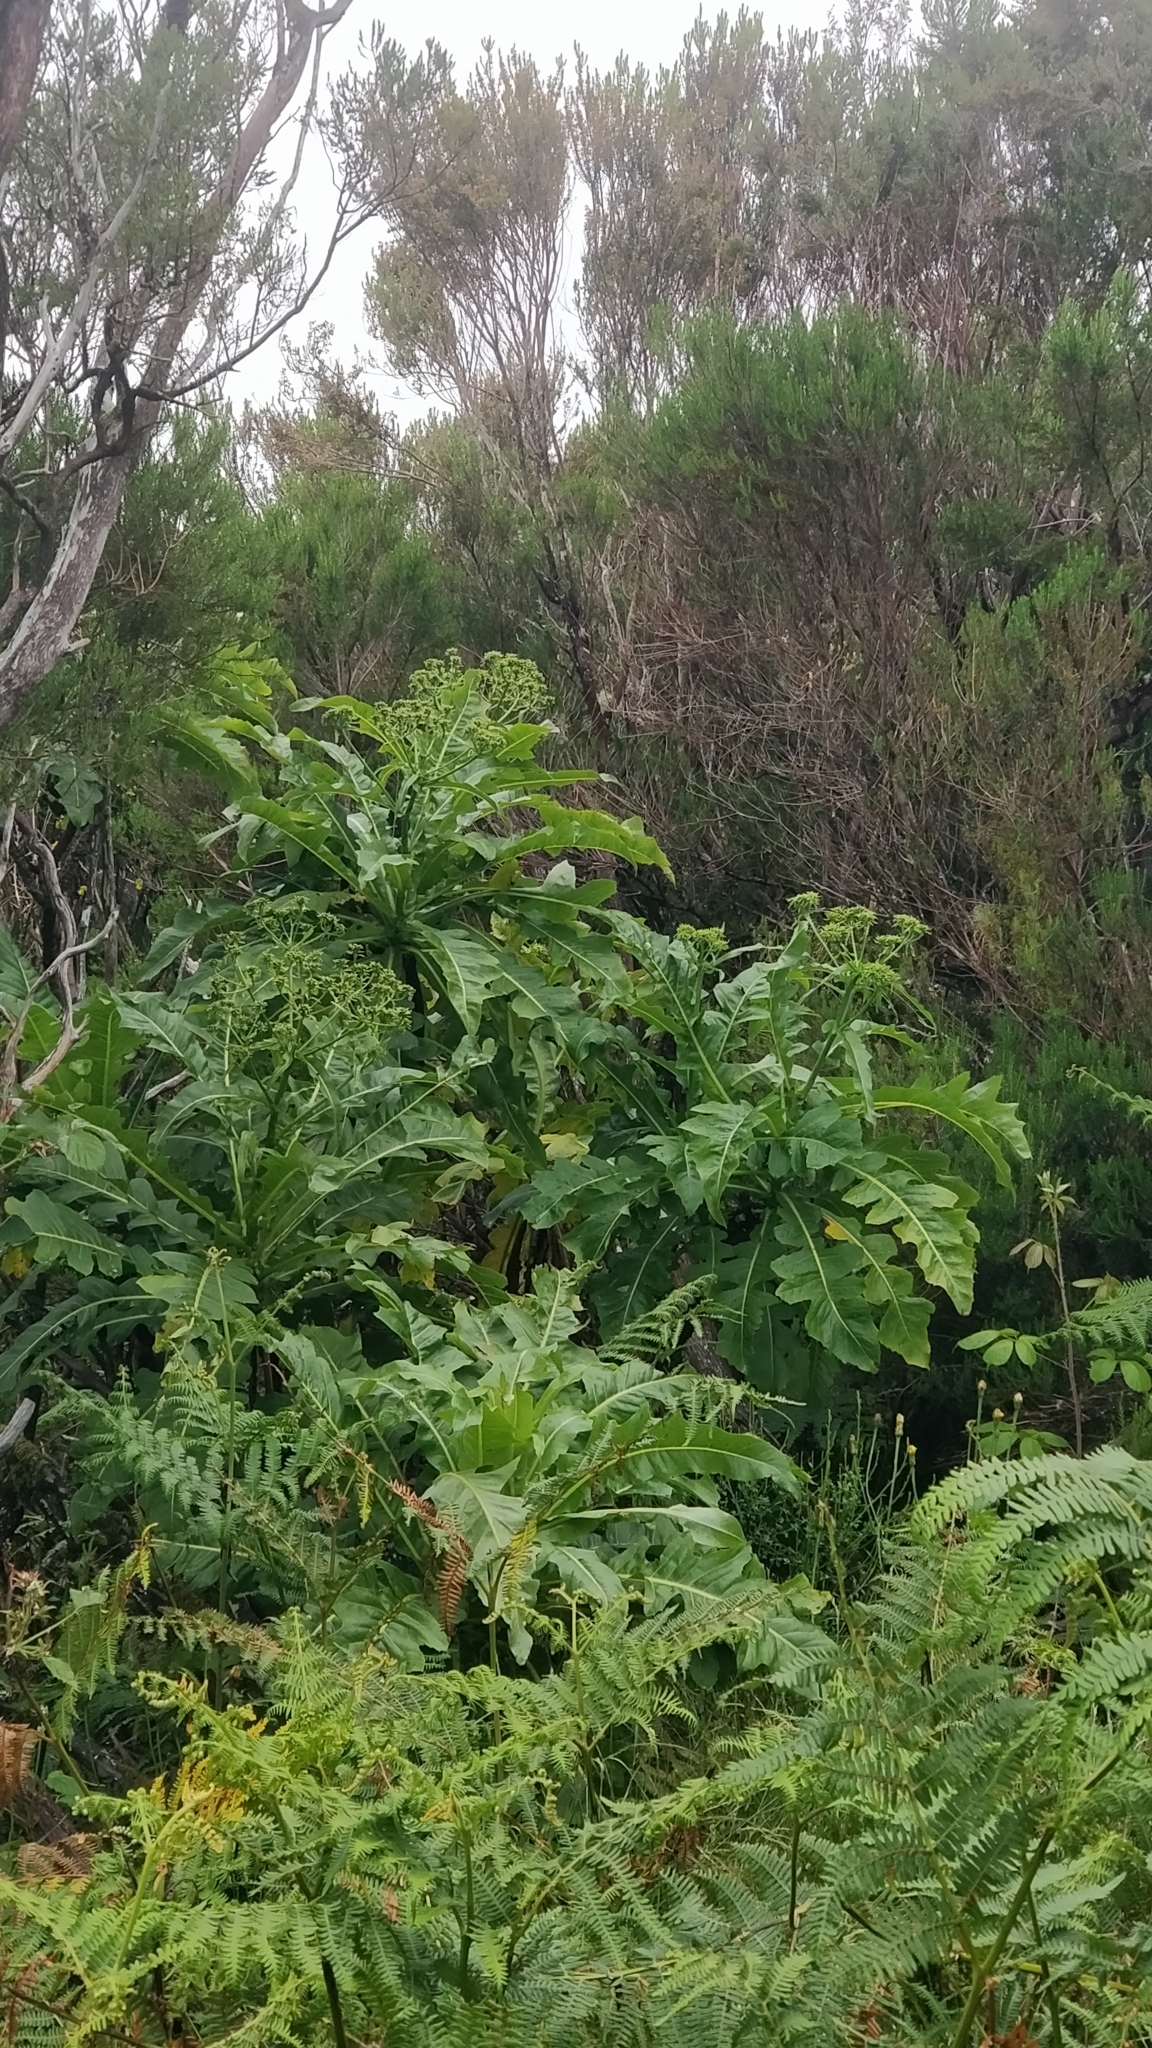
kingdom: Plantae
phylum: Tracheophyta
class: Magnoliopsida
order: Asterales
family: Asteraceae
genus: Sonchus
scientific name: Sonchus fruticosus
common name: Shrubby sow-thistle
